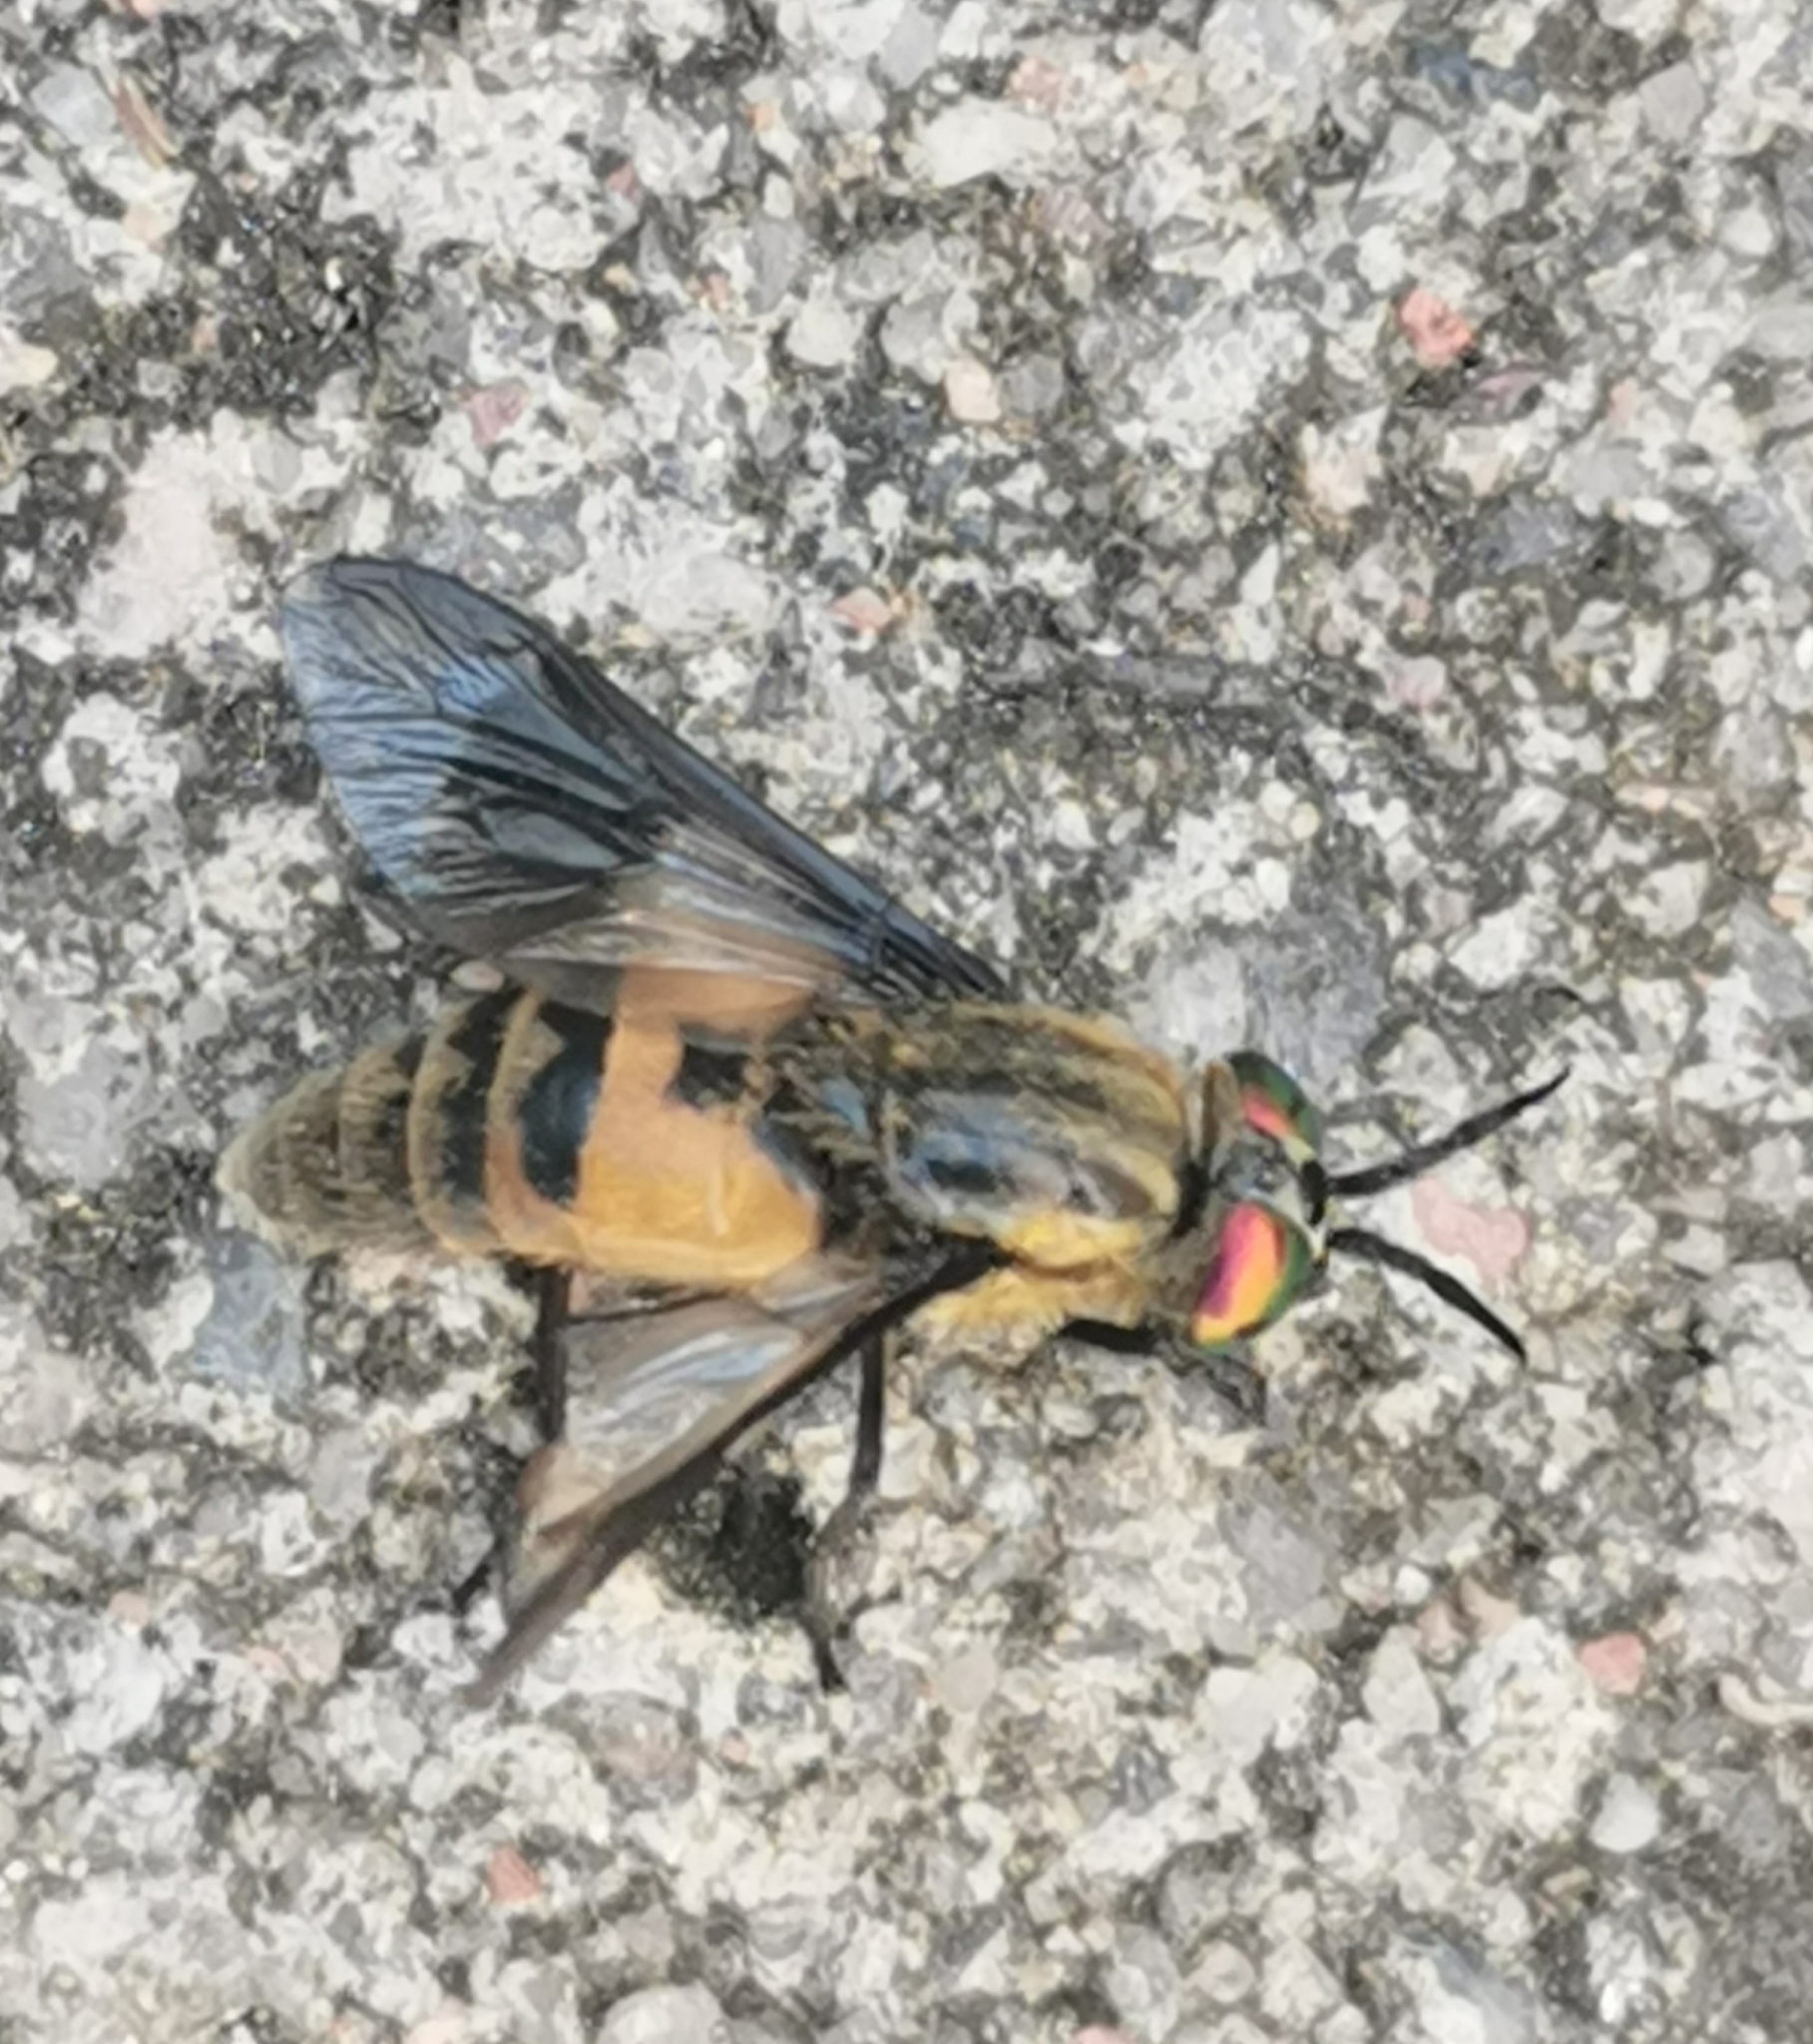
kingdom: Animalia
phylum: Arthropoda
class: Insecta
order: Diptera
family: Tabanidae
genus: Chrysops
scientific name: Chrysops viduatus
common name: Square-spot deerfly
